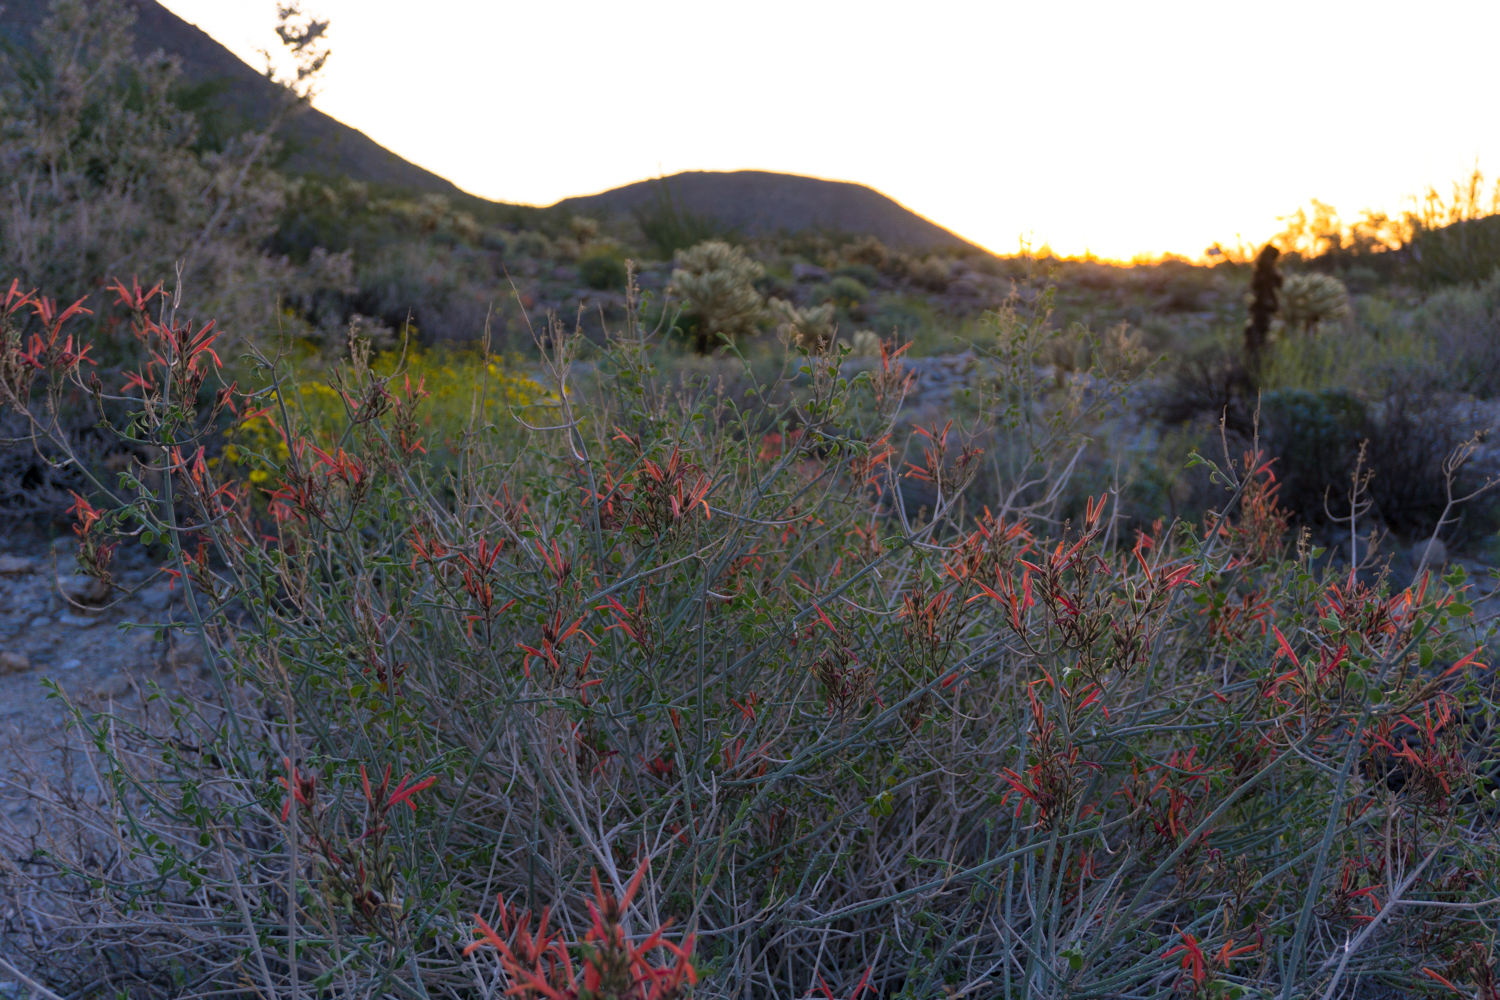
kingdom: Plantae
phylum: Tracheophyta
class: Magnoliopsida
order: Lamiales
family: Acanthaceae
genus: Justicia
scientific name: Justicia californica
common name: Chuparosa-honeysuckle
